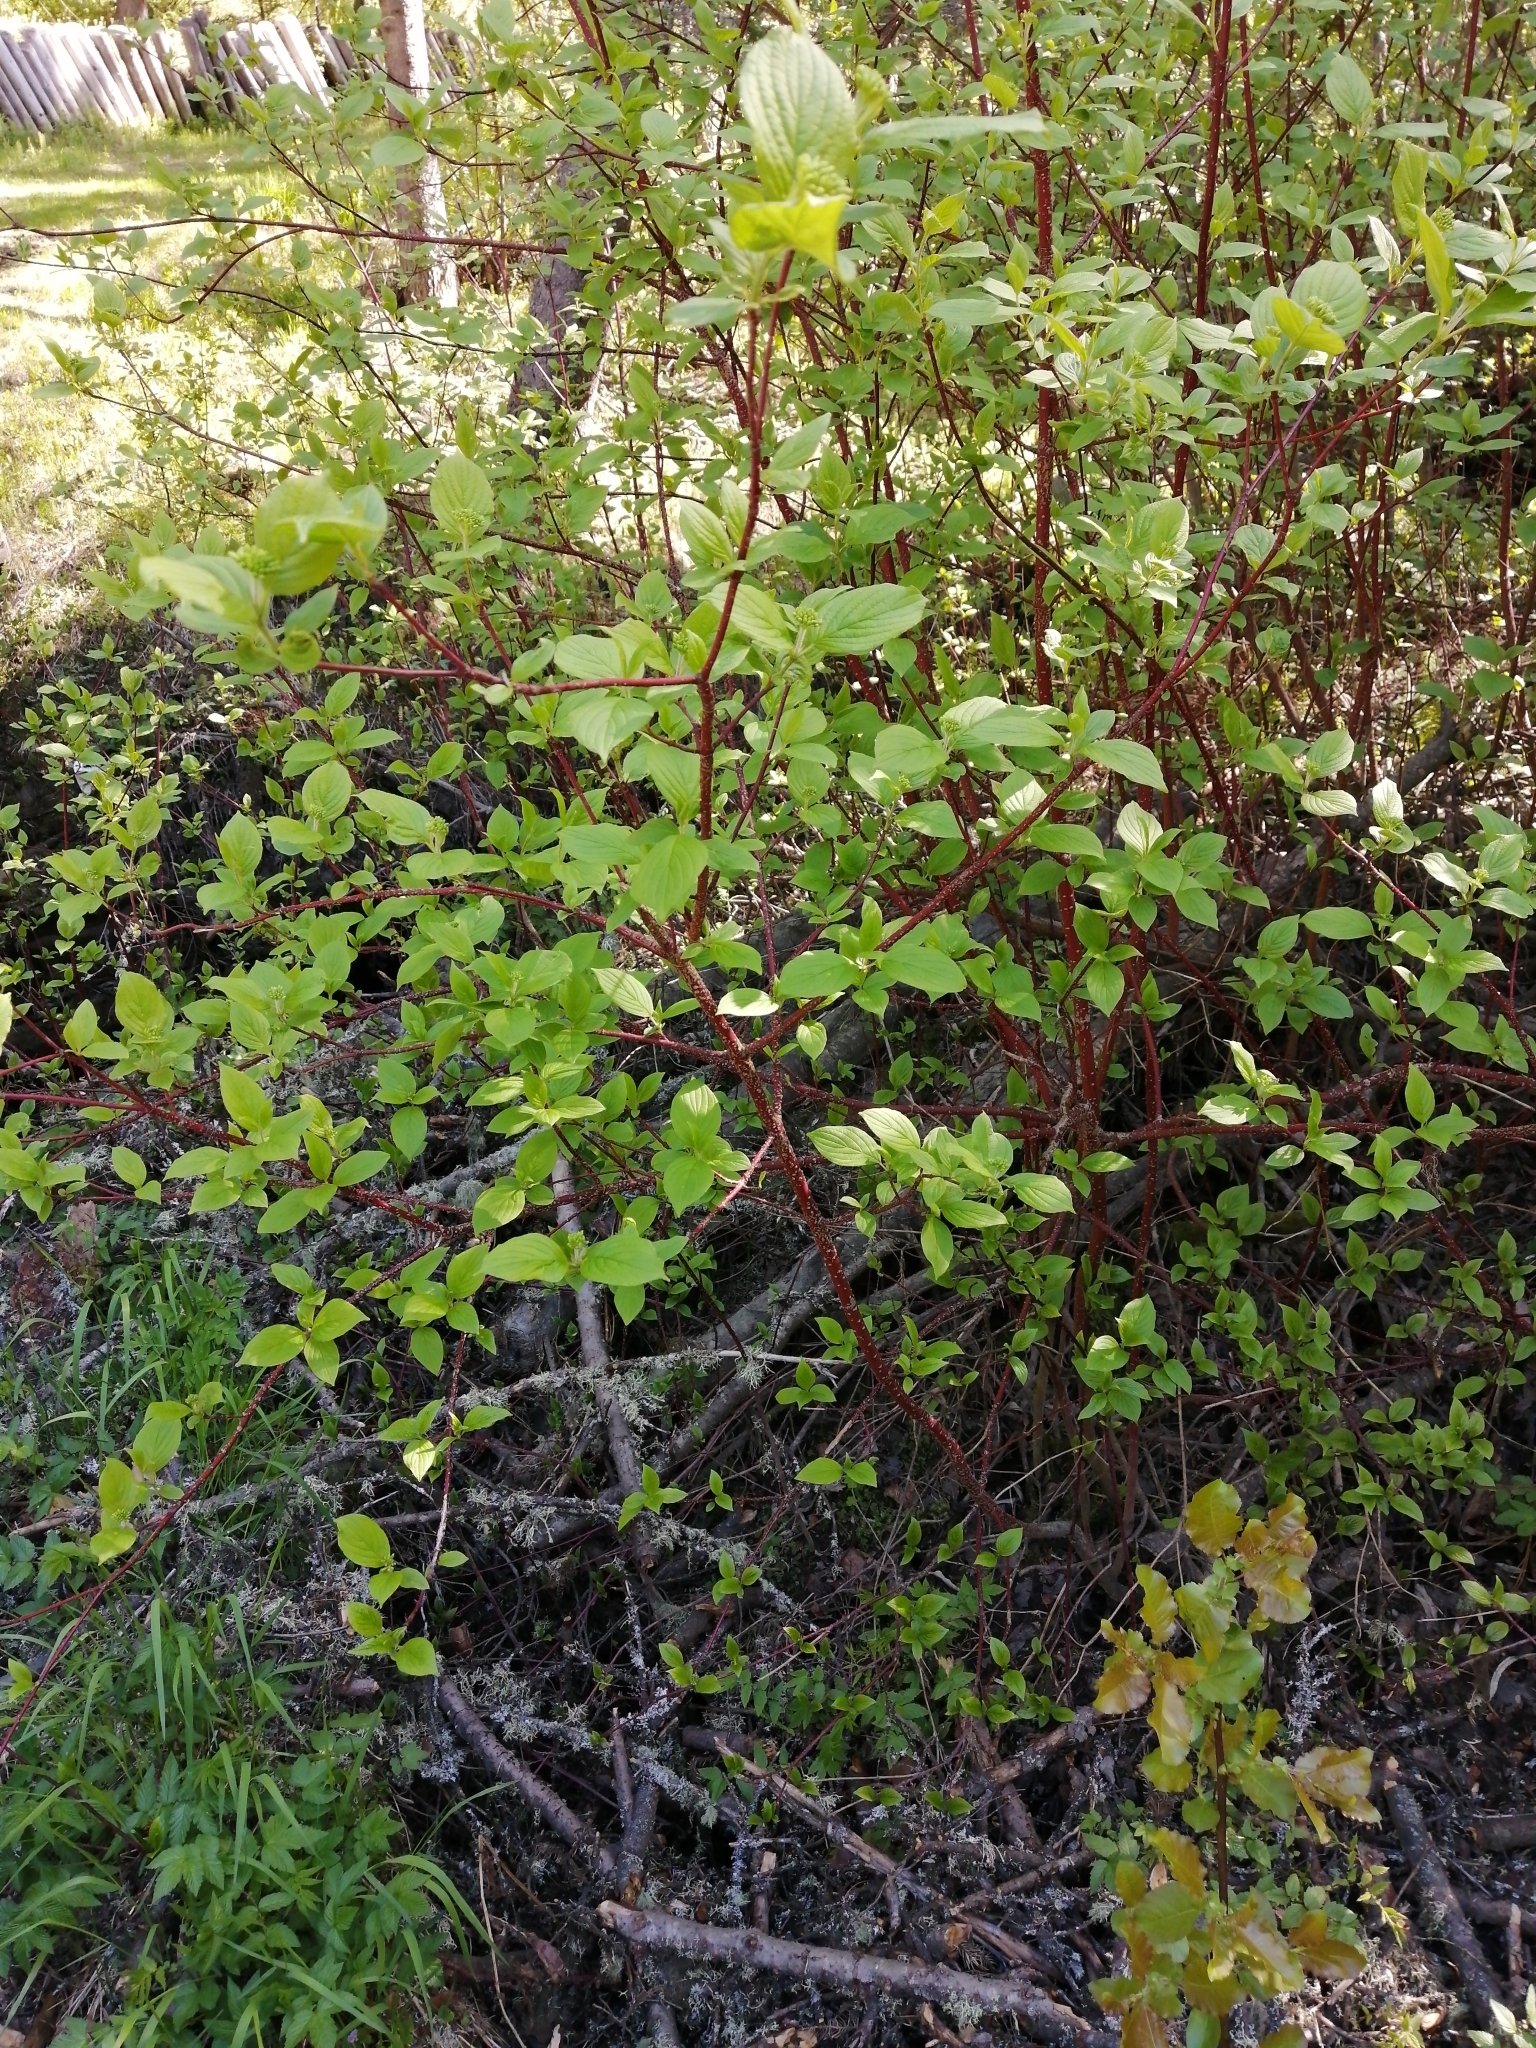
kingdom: Plantae
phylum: Tracheophyta
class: Magnoliopsida
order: Cornales
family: Cornaceae
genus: Cornus
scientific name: Cornus alba
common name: White dogwood
